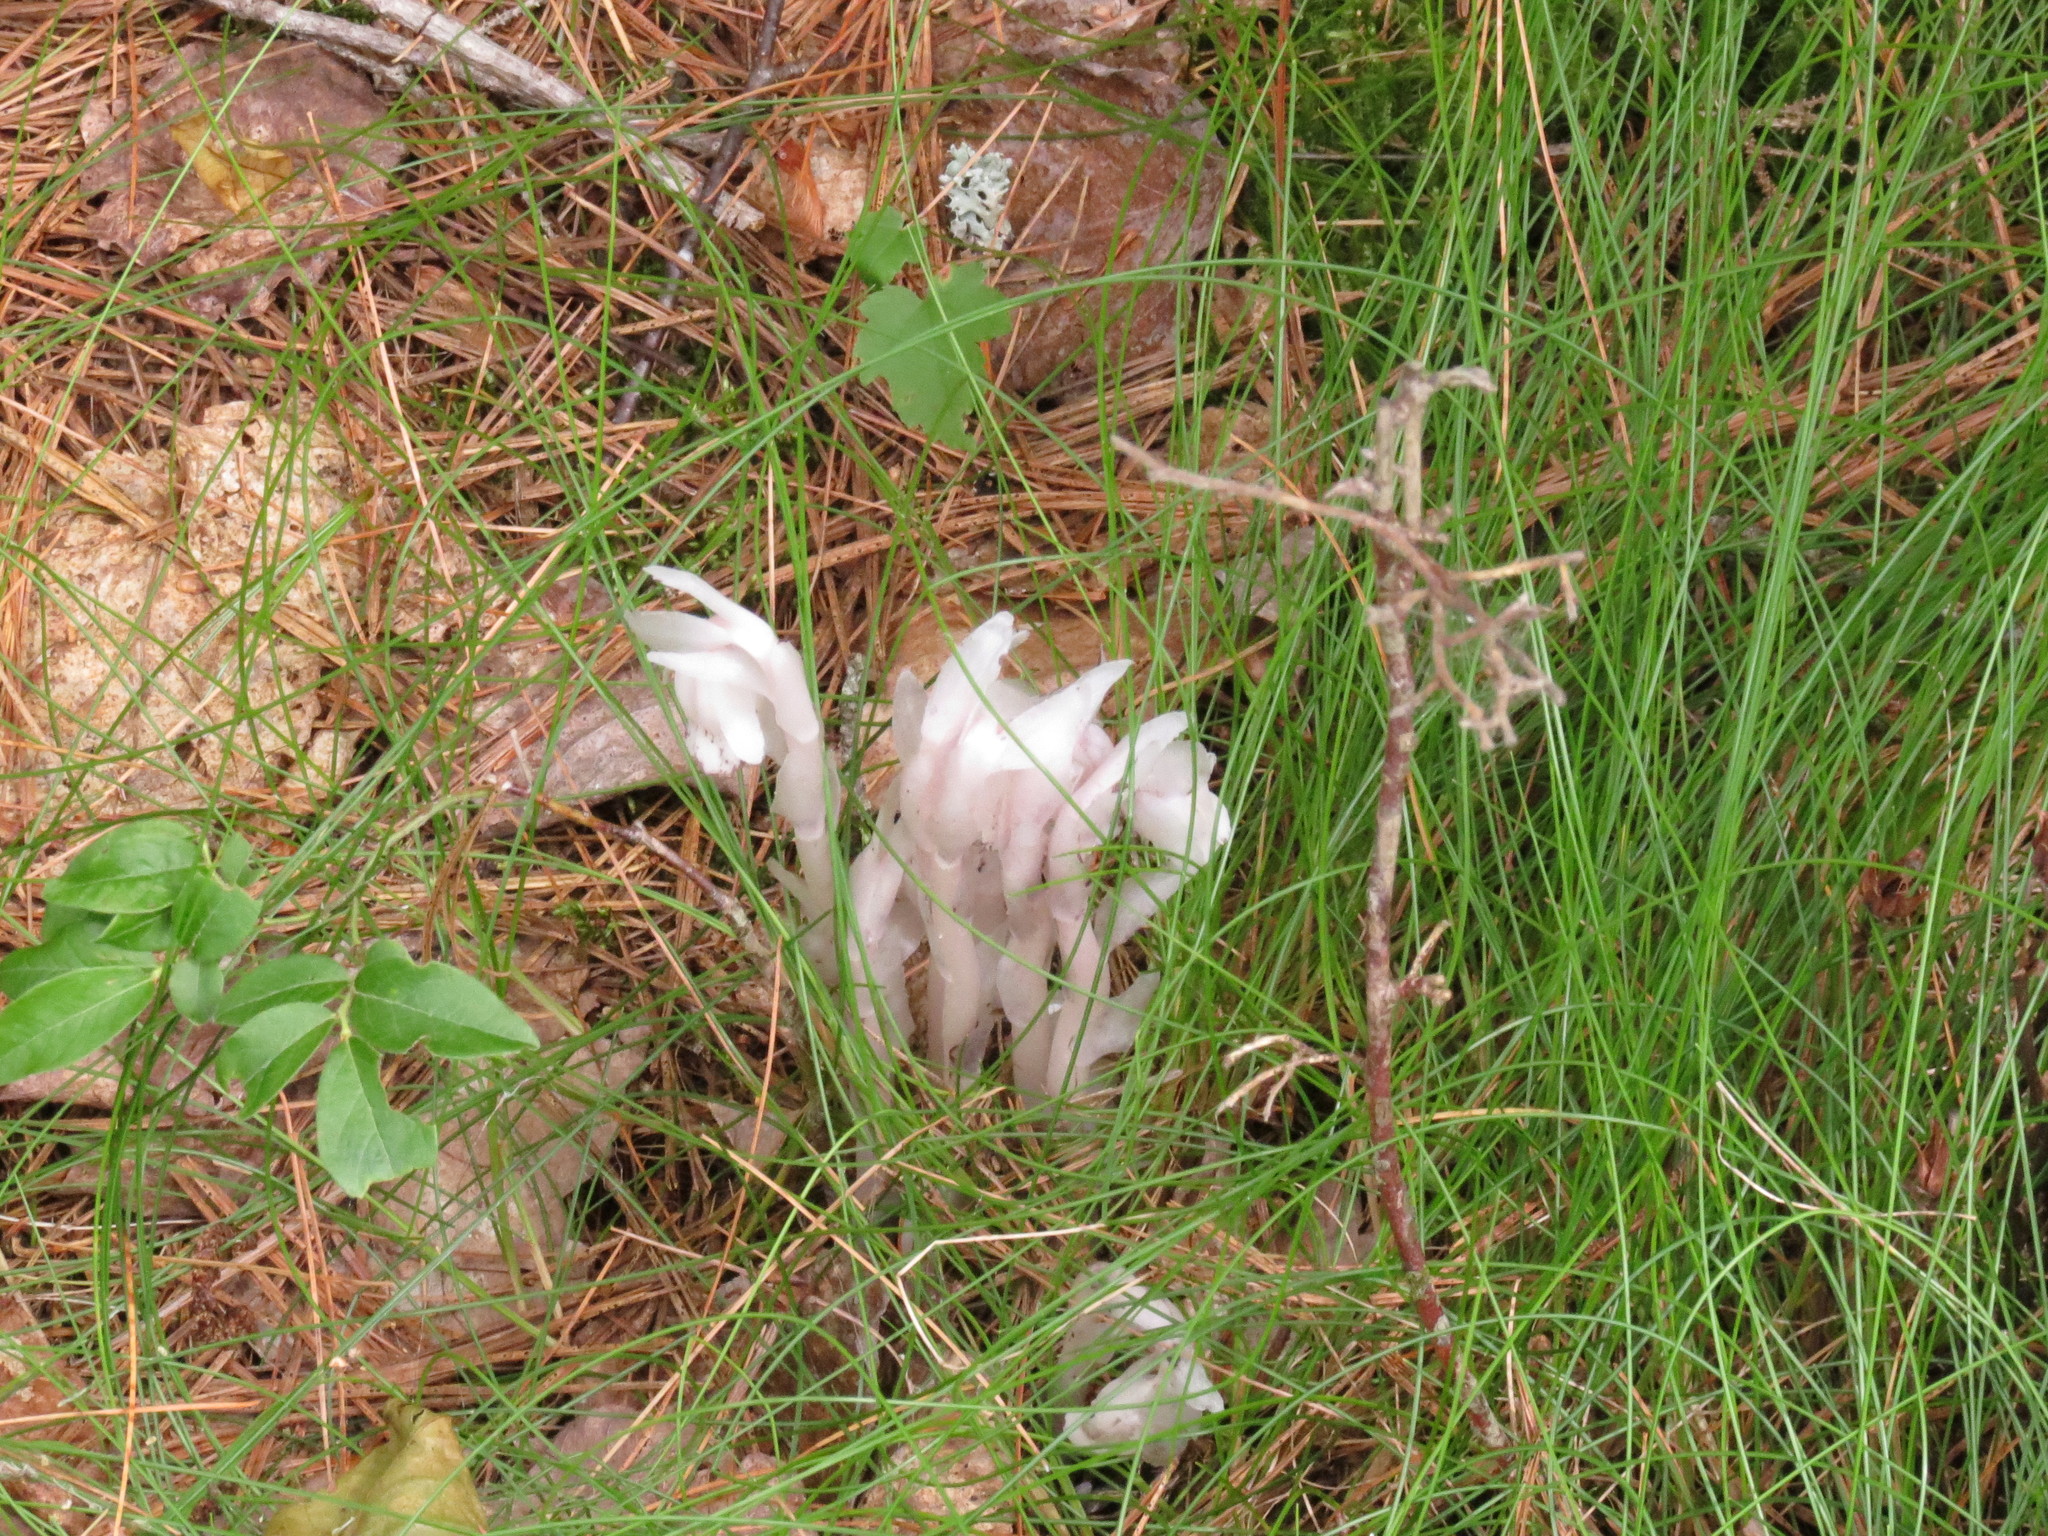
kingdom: Plantae
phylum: Tracheophyta
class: Magnoliopsida
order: Ericales
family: Ericaceae
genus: Monotropa
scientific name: Monotropa uniflora
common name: Convulsion root
